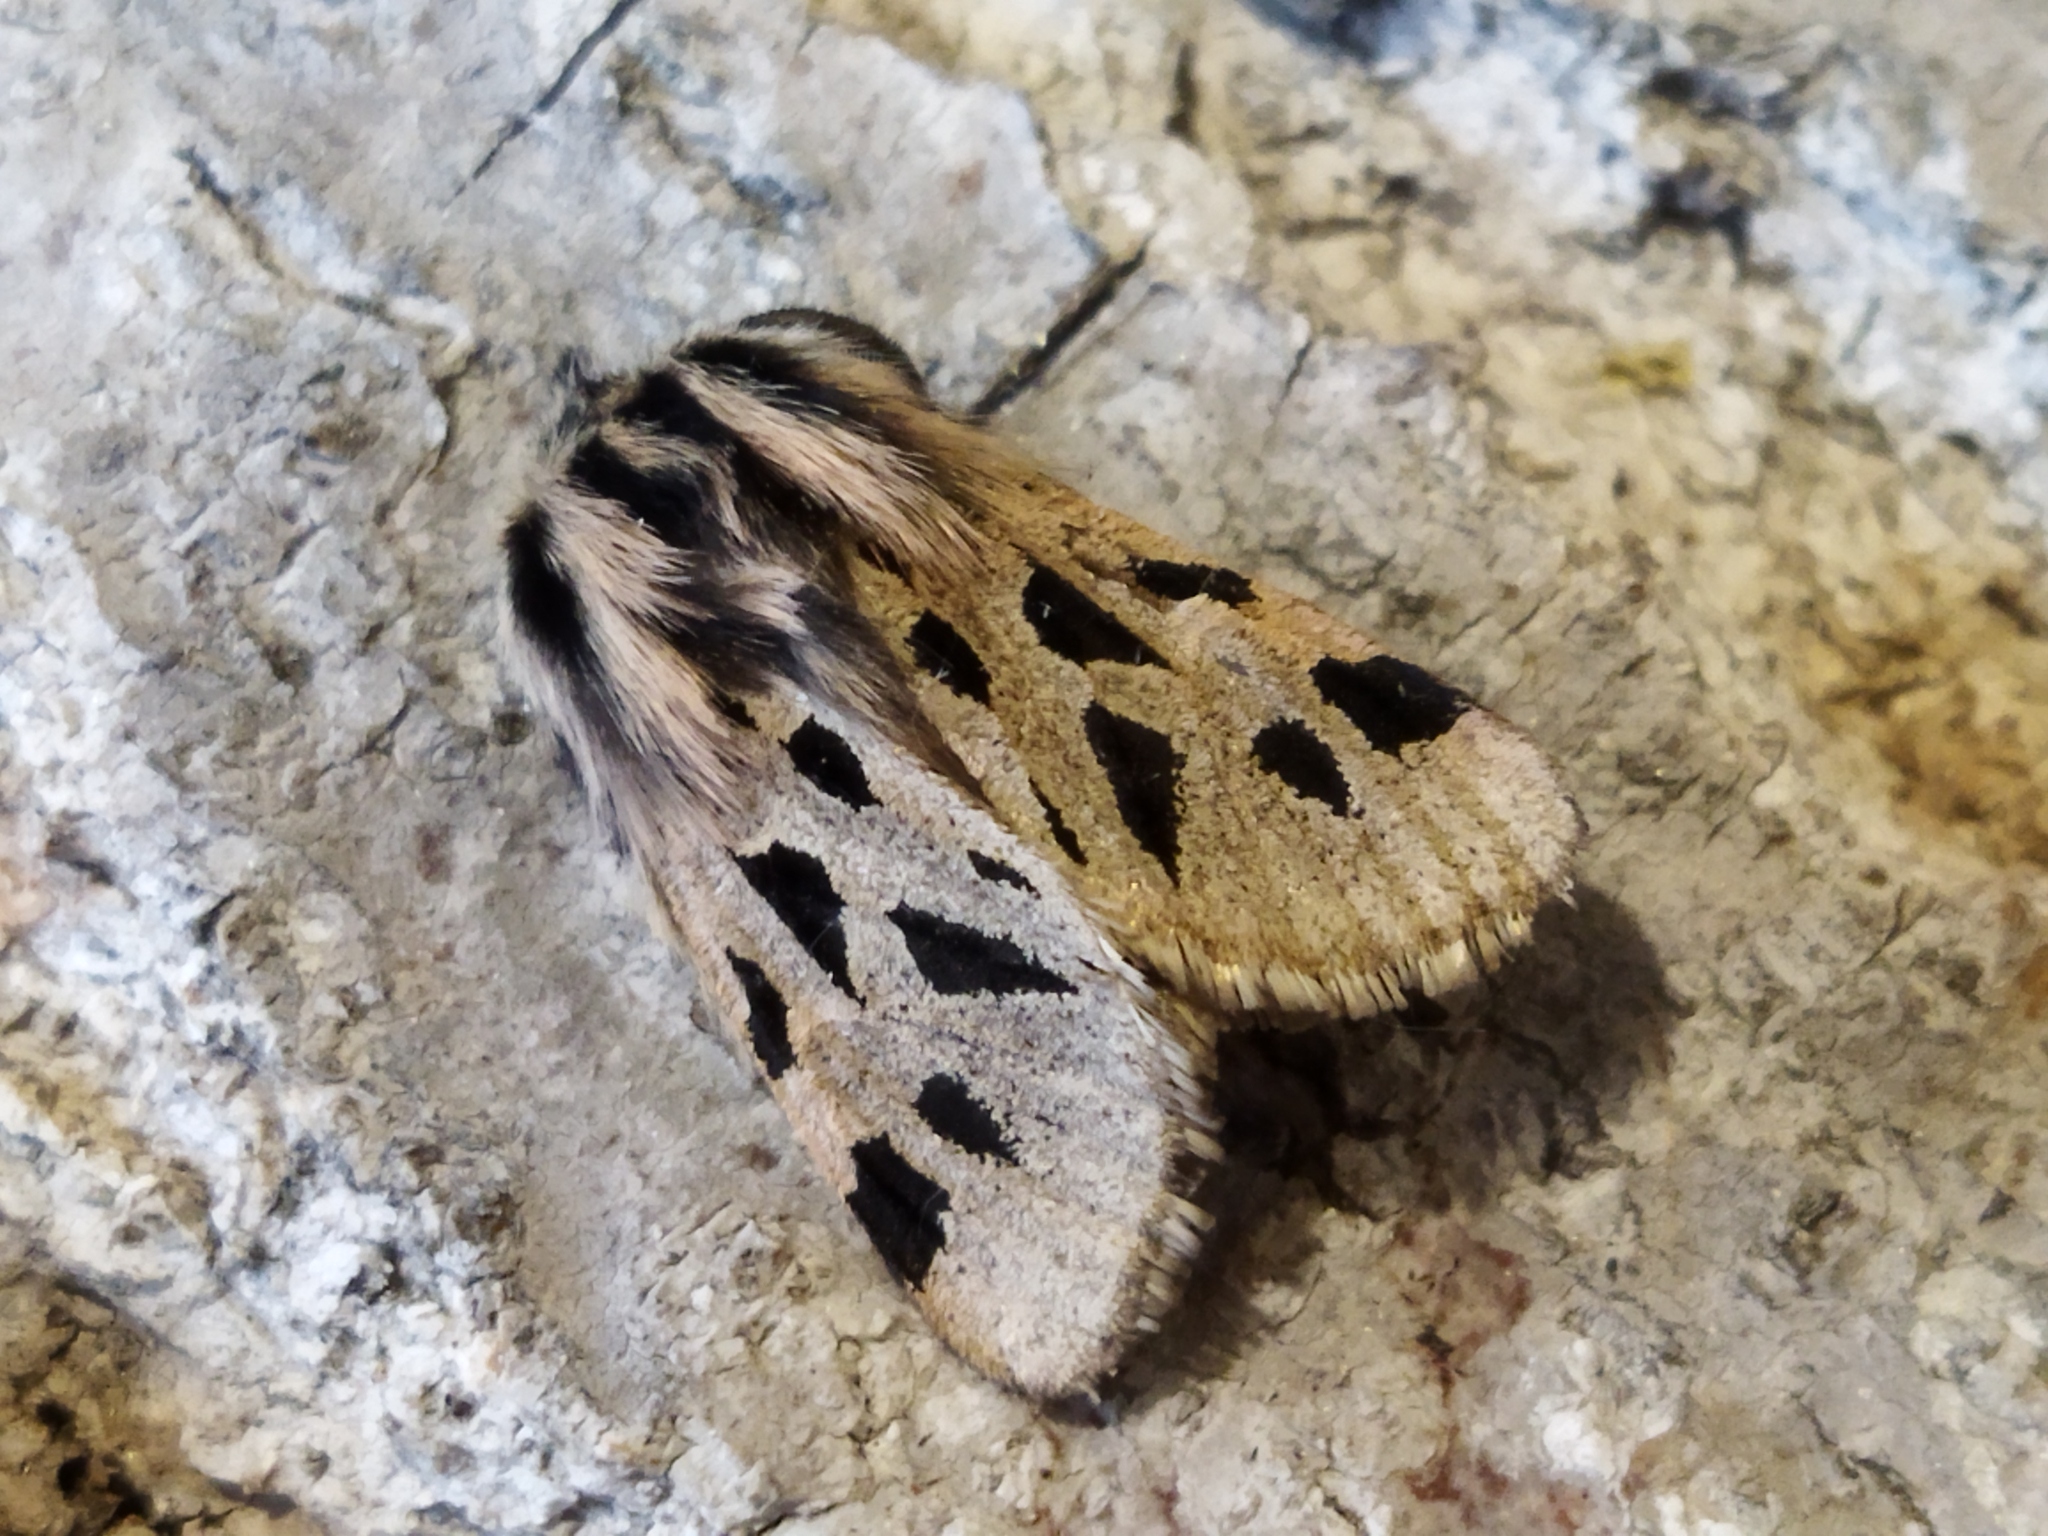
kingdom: Animalia
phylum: Arthropoda
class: Insecta
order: Lepidoptera
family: Erebidae
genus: Ocnogyna
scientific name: Ocnogyna parasita
